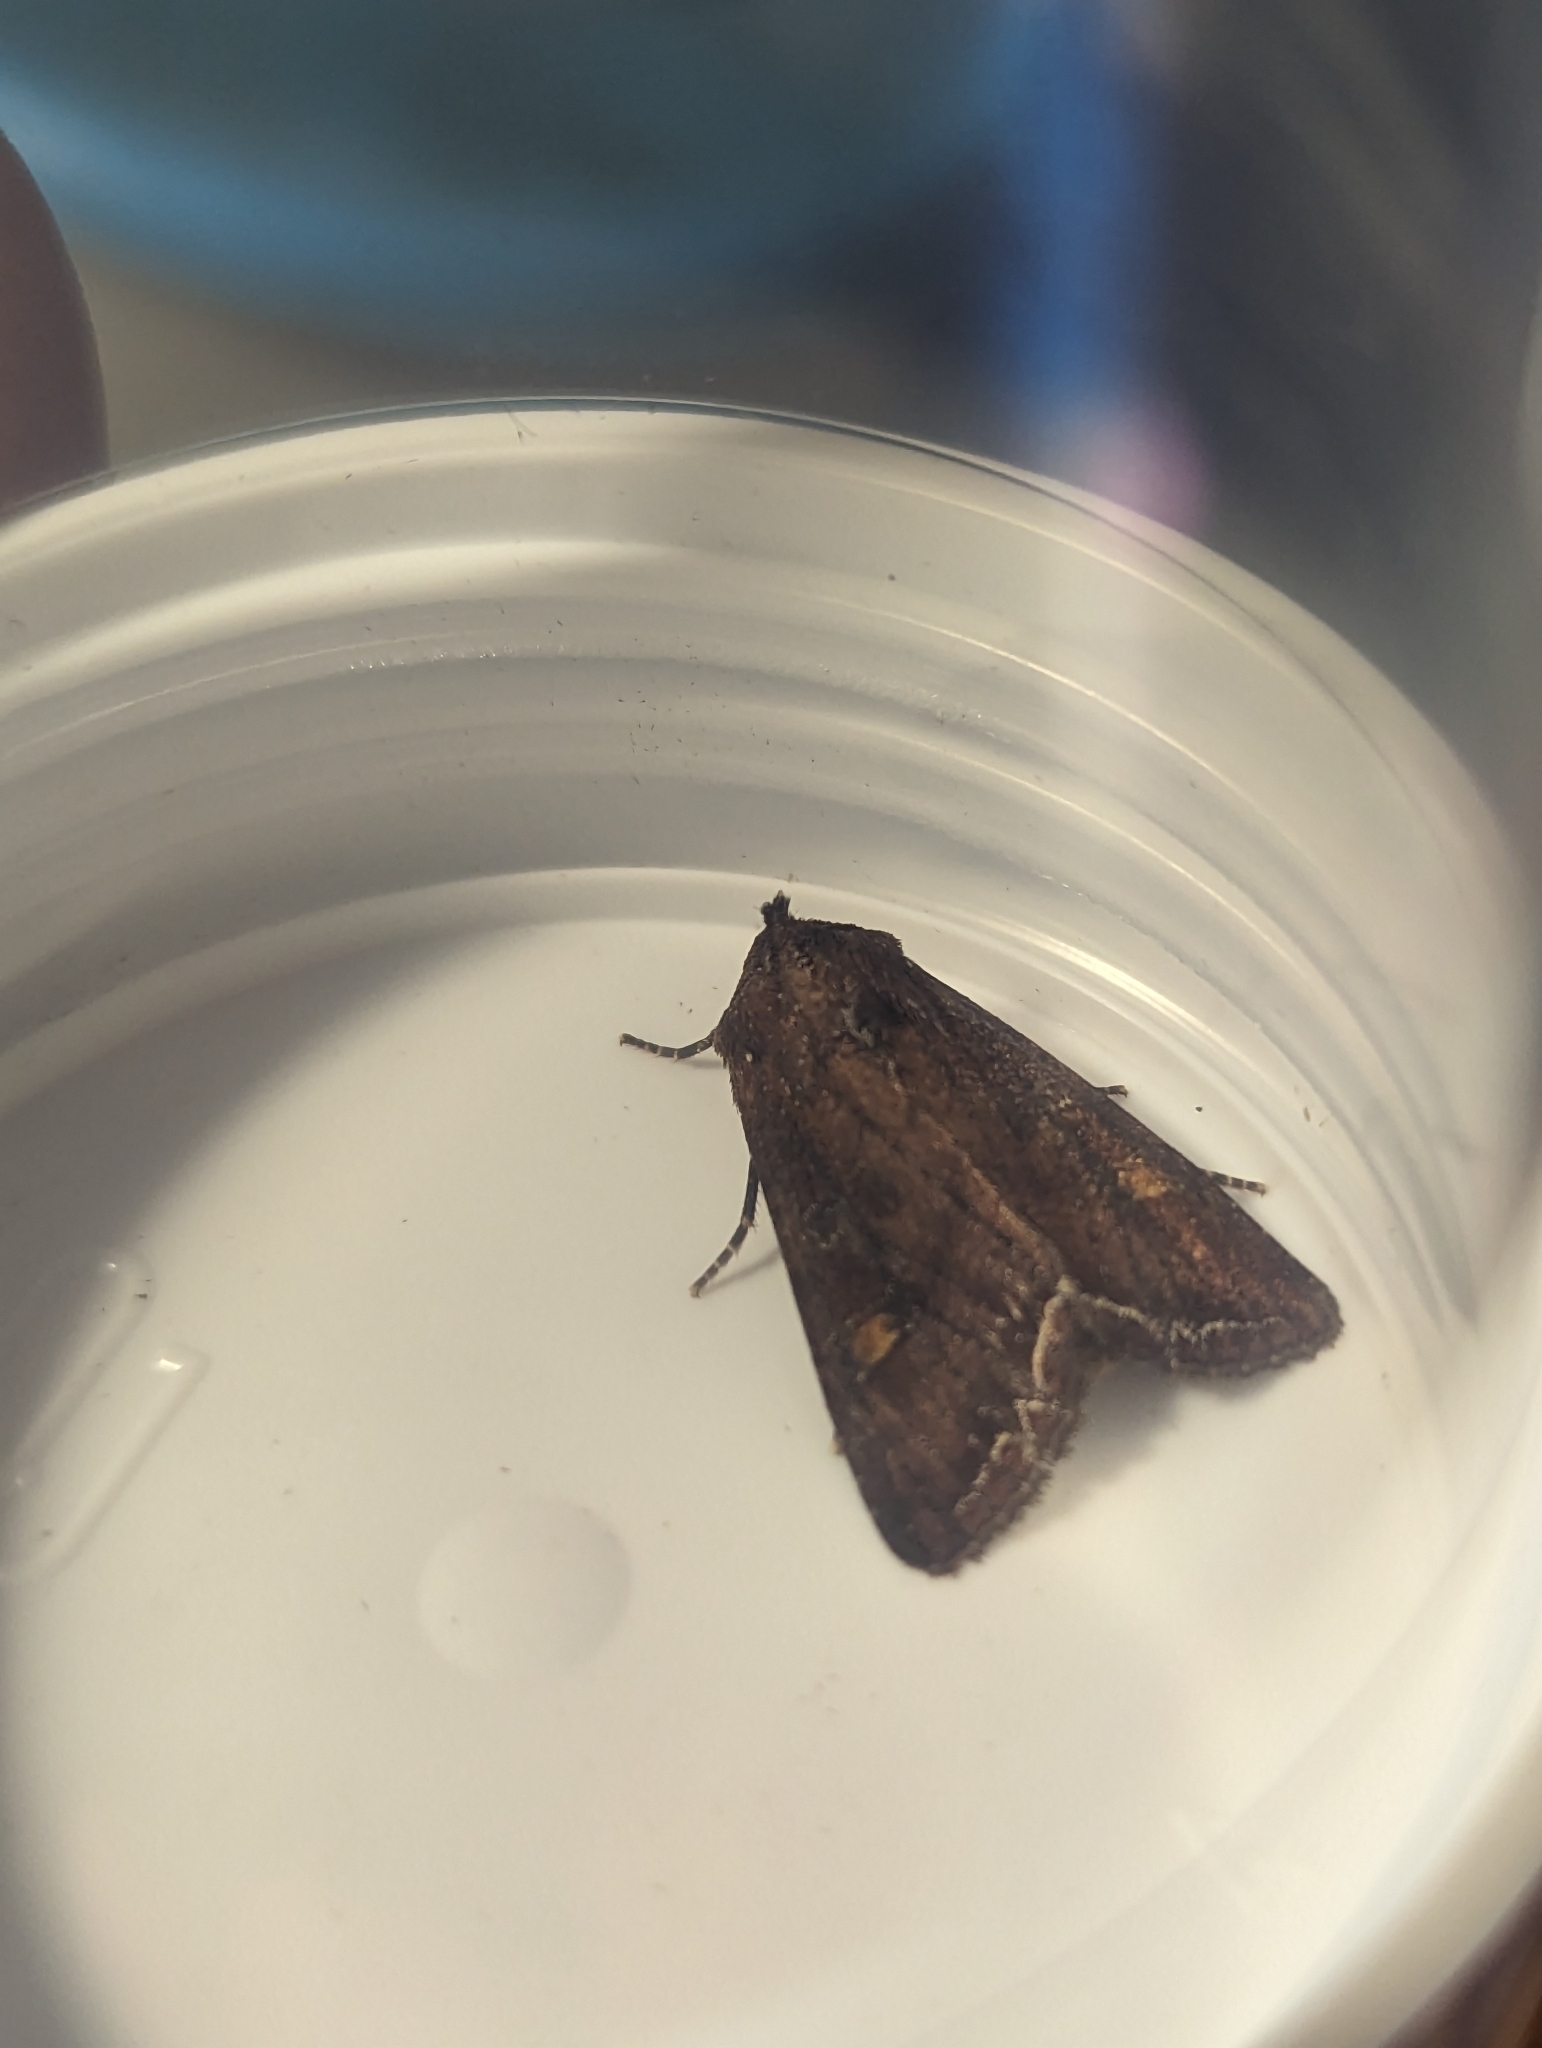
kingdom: Animalia
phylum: Arthropoda
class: Insecta
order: Lepidoptera
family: Noctuidae
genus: Lacanobia
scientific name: Lacanobia oleracea
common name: Bright-line brown-eye
